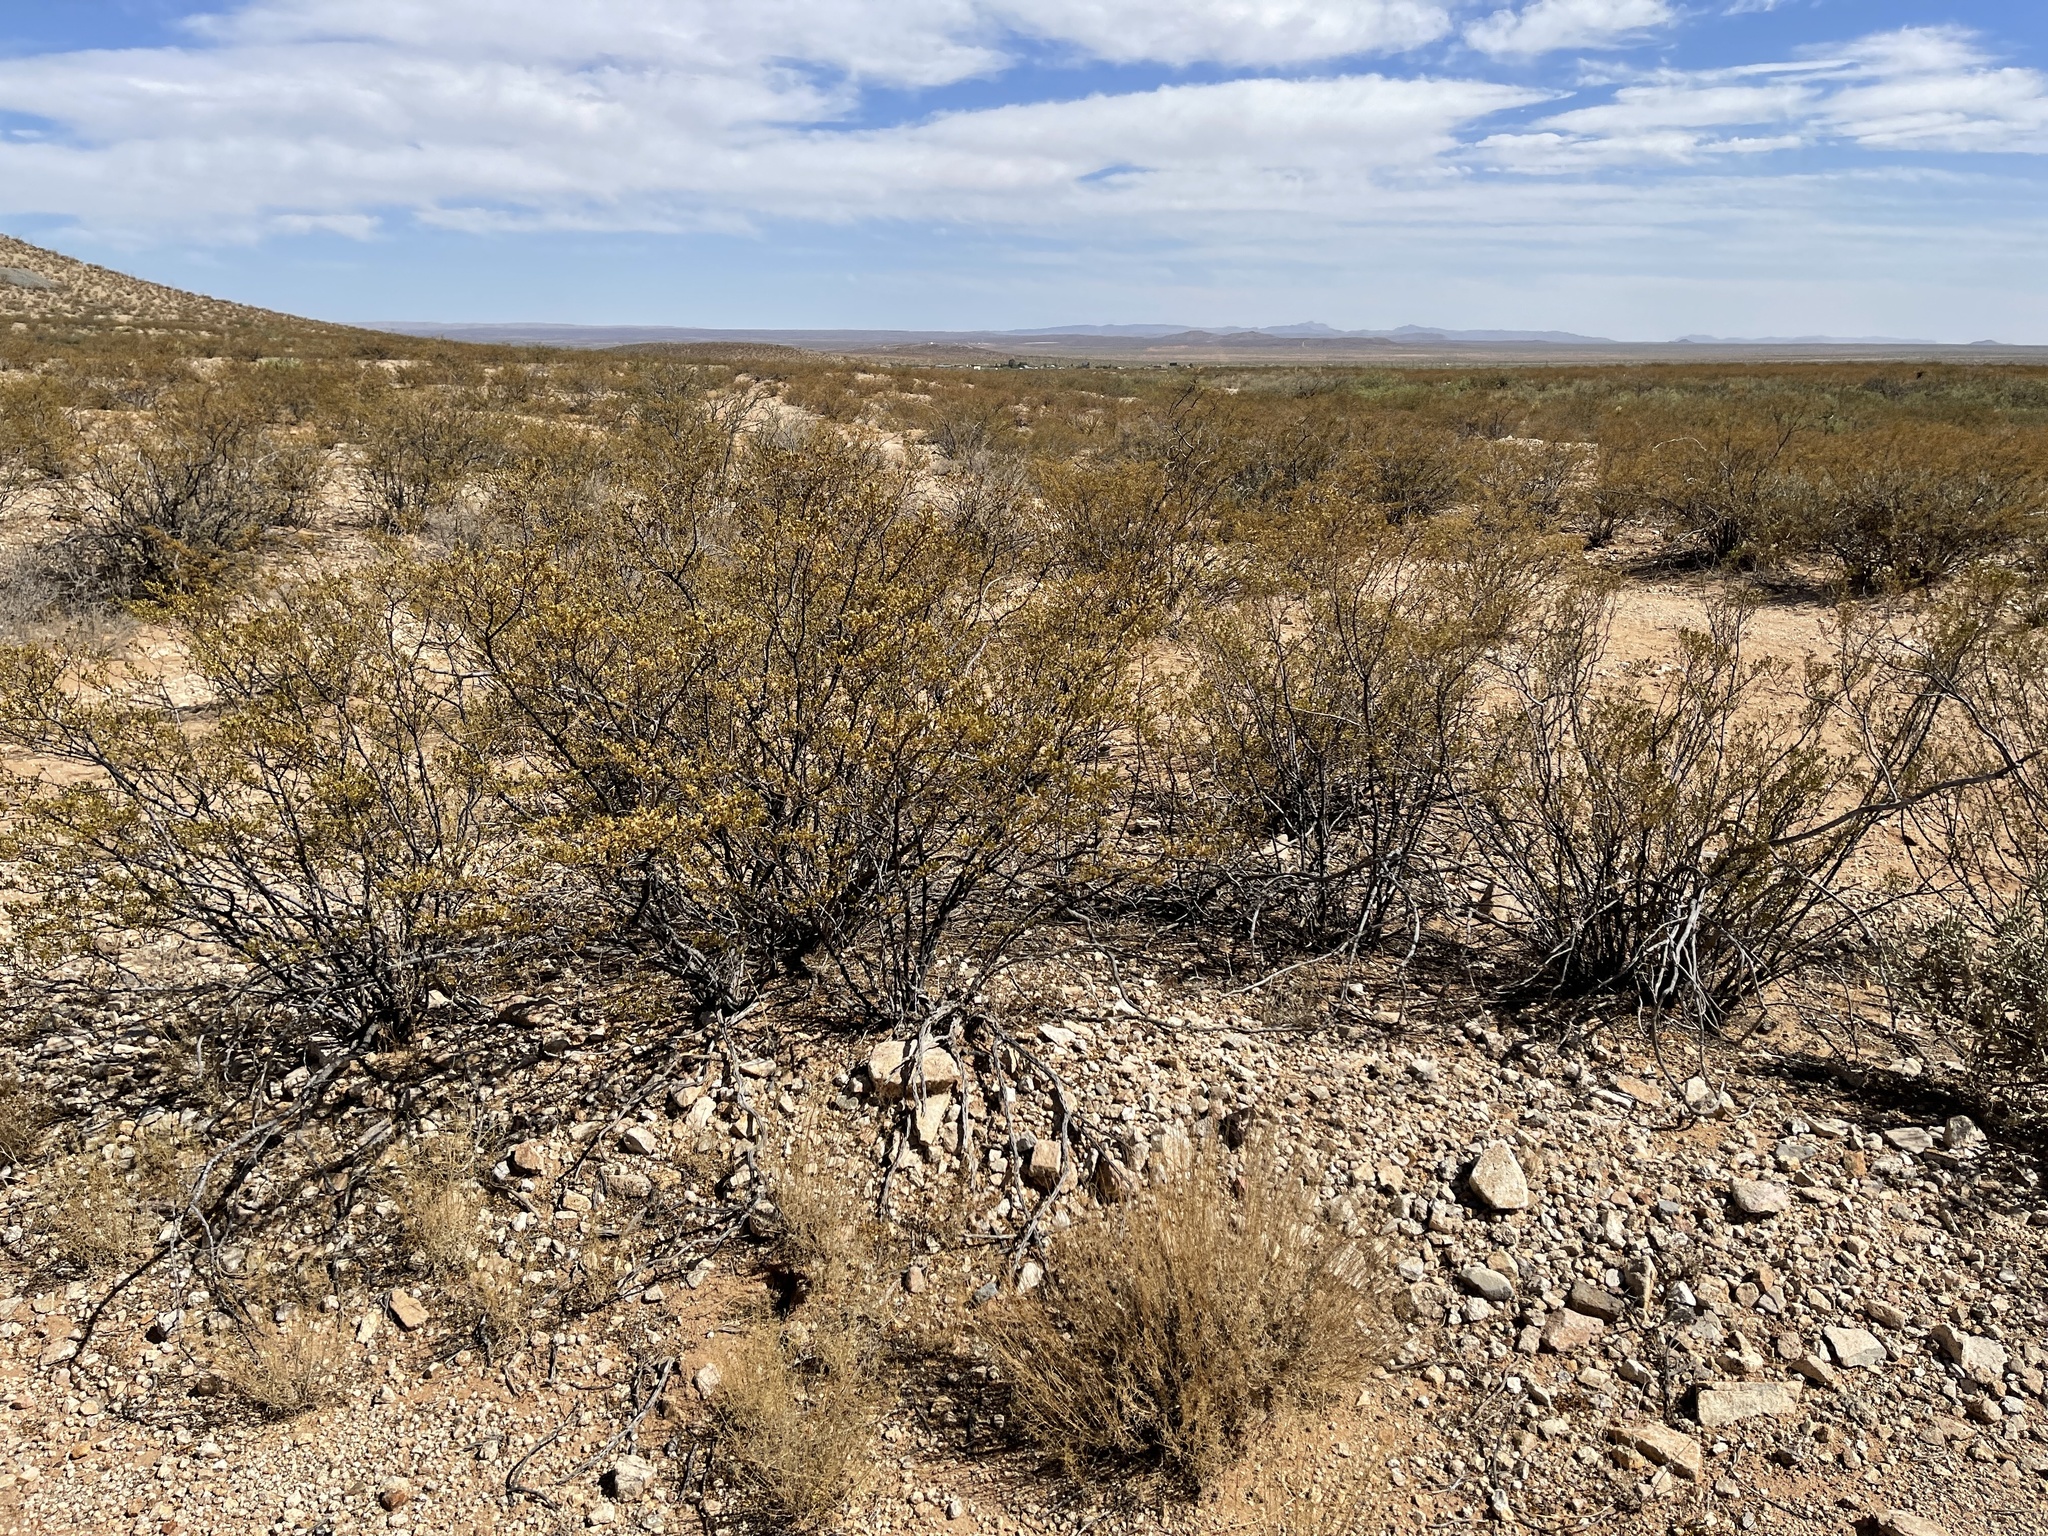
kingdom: Plantae
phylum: Tracheophyta
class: Magnoliopsida
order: Zygophyllales
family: Zygophyllaceae
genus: Larrea
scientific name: Larrea tridentata
